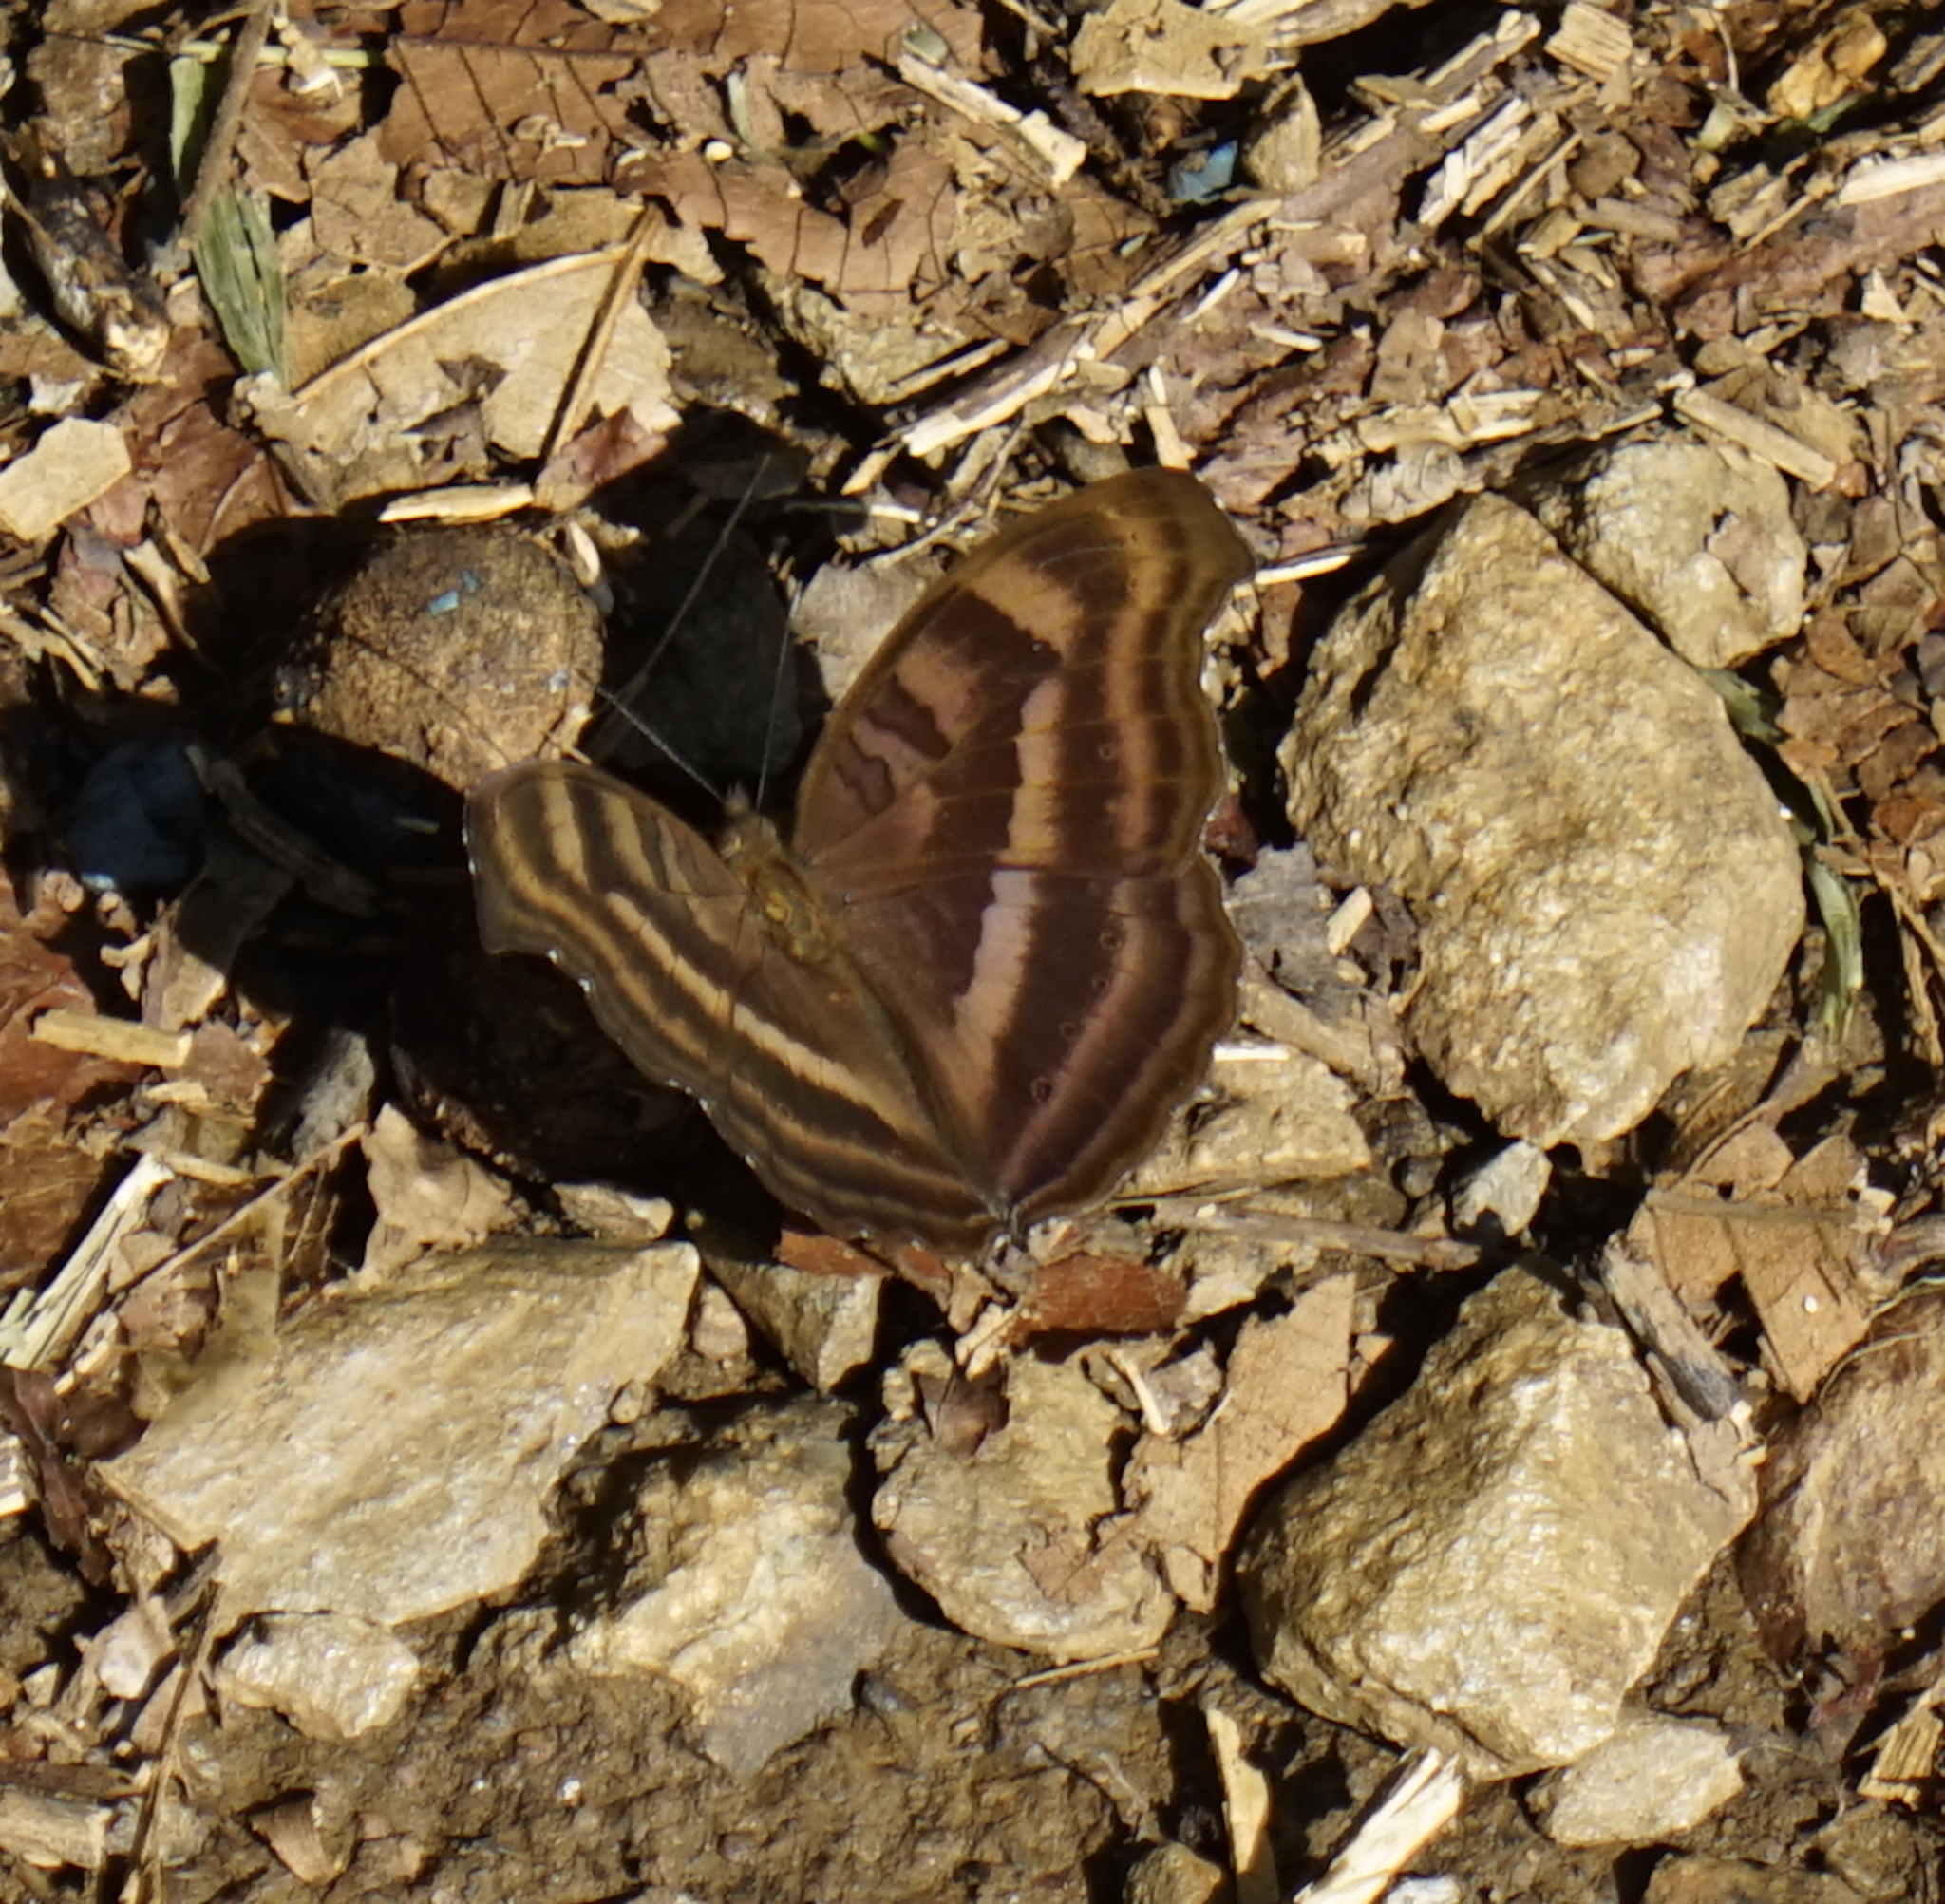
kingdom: Animalia
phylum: Arthropoda
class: Insecta
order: Lepidoptera
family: Nymphalidae
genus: Junonia
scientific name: Junonia iphita
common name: Chocolate pansy
